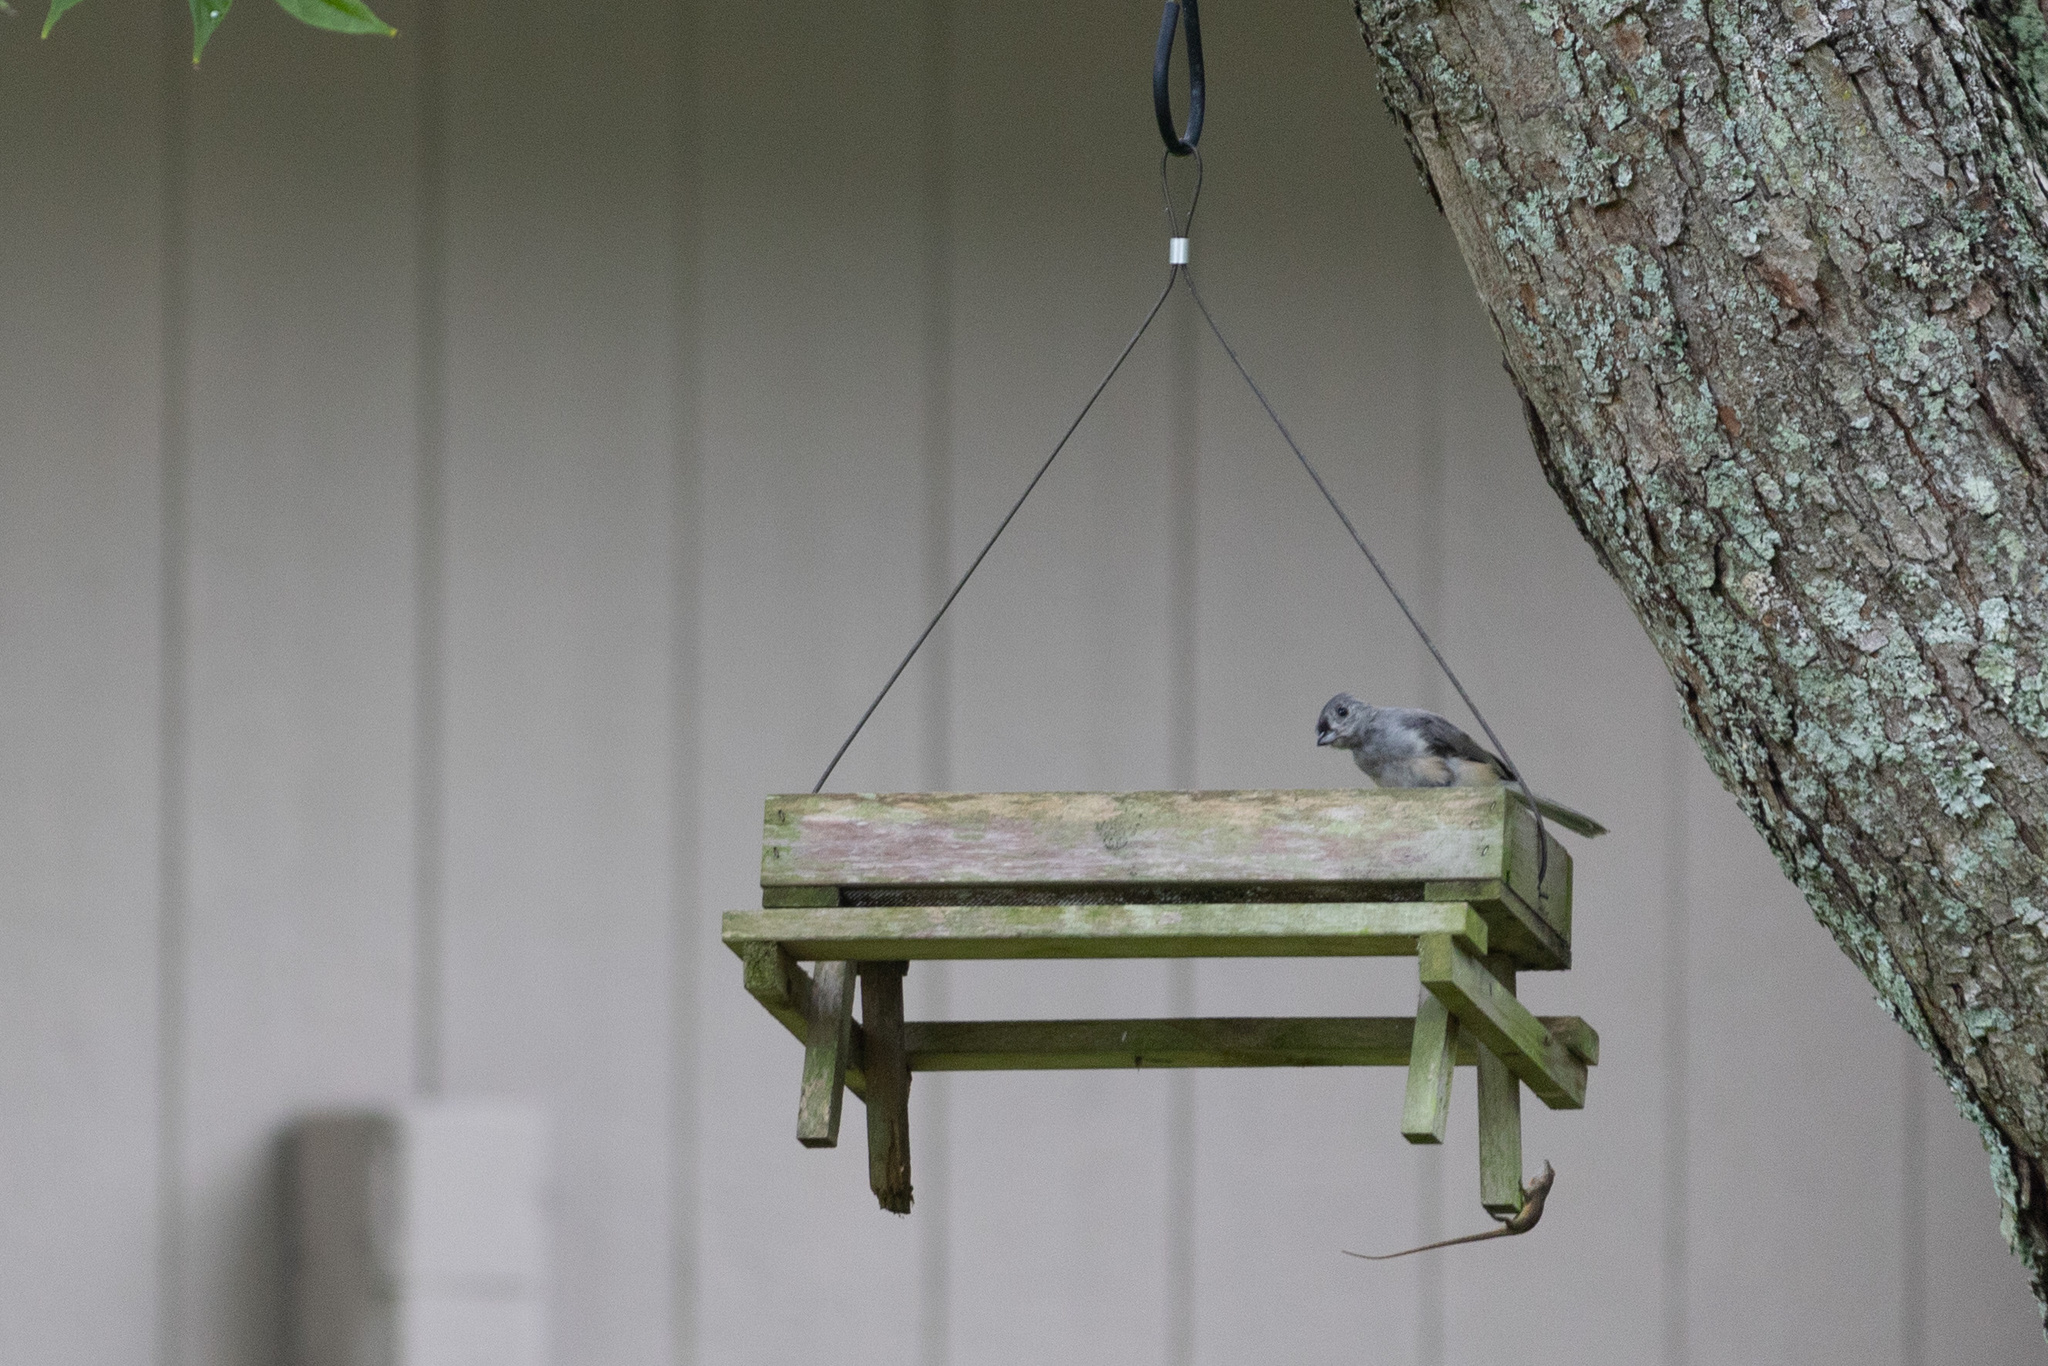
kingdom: Animalia
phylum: Chordata
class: Aves
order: Passeriformes
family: Paridae
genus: Baeolophus
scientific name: Baeolophus bicolor
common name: Tufted titmouse
